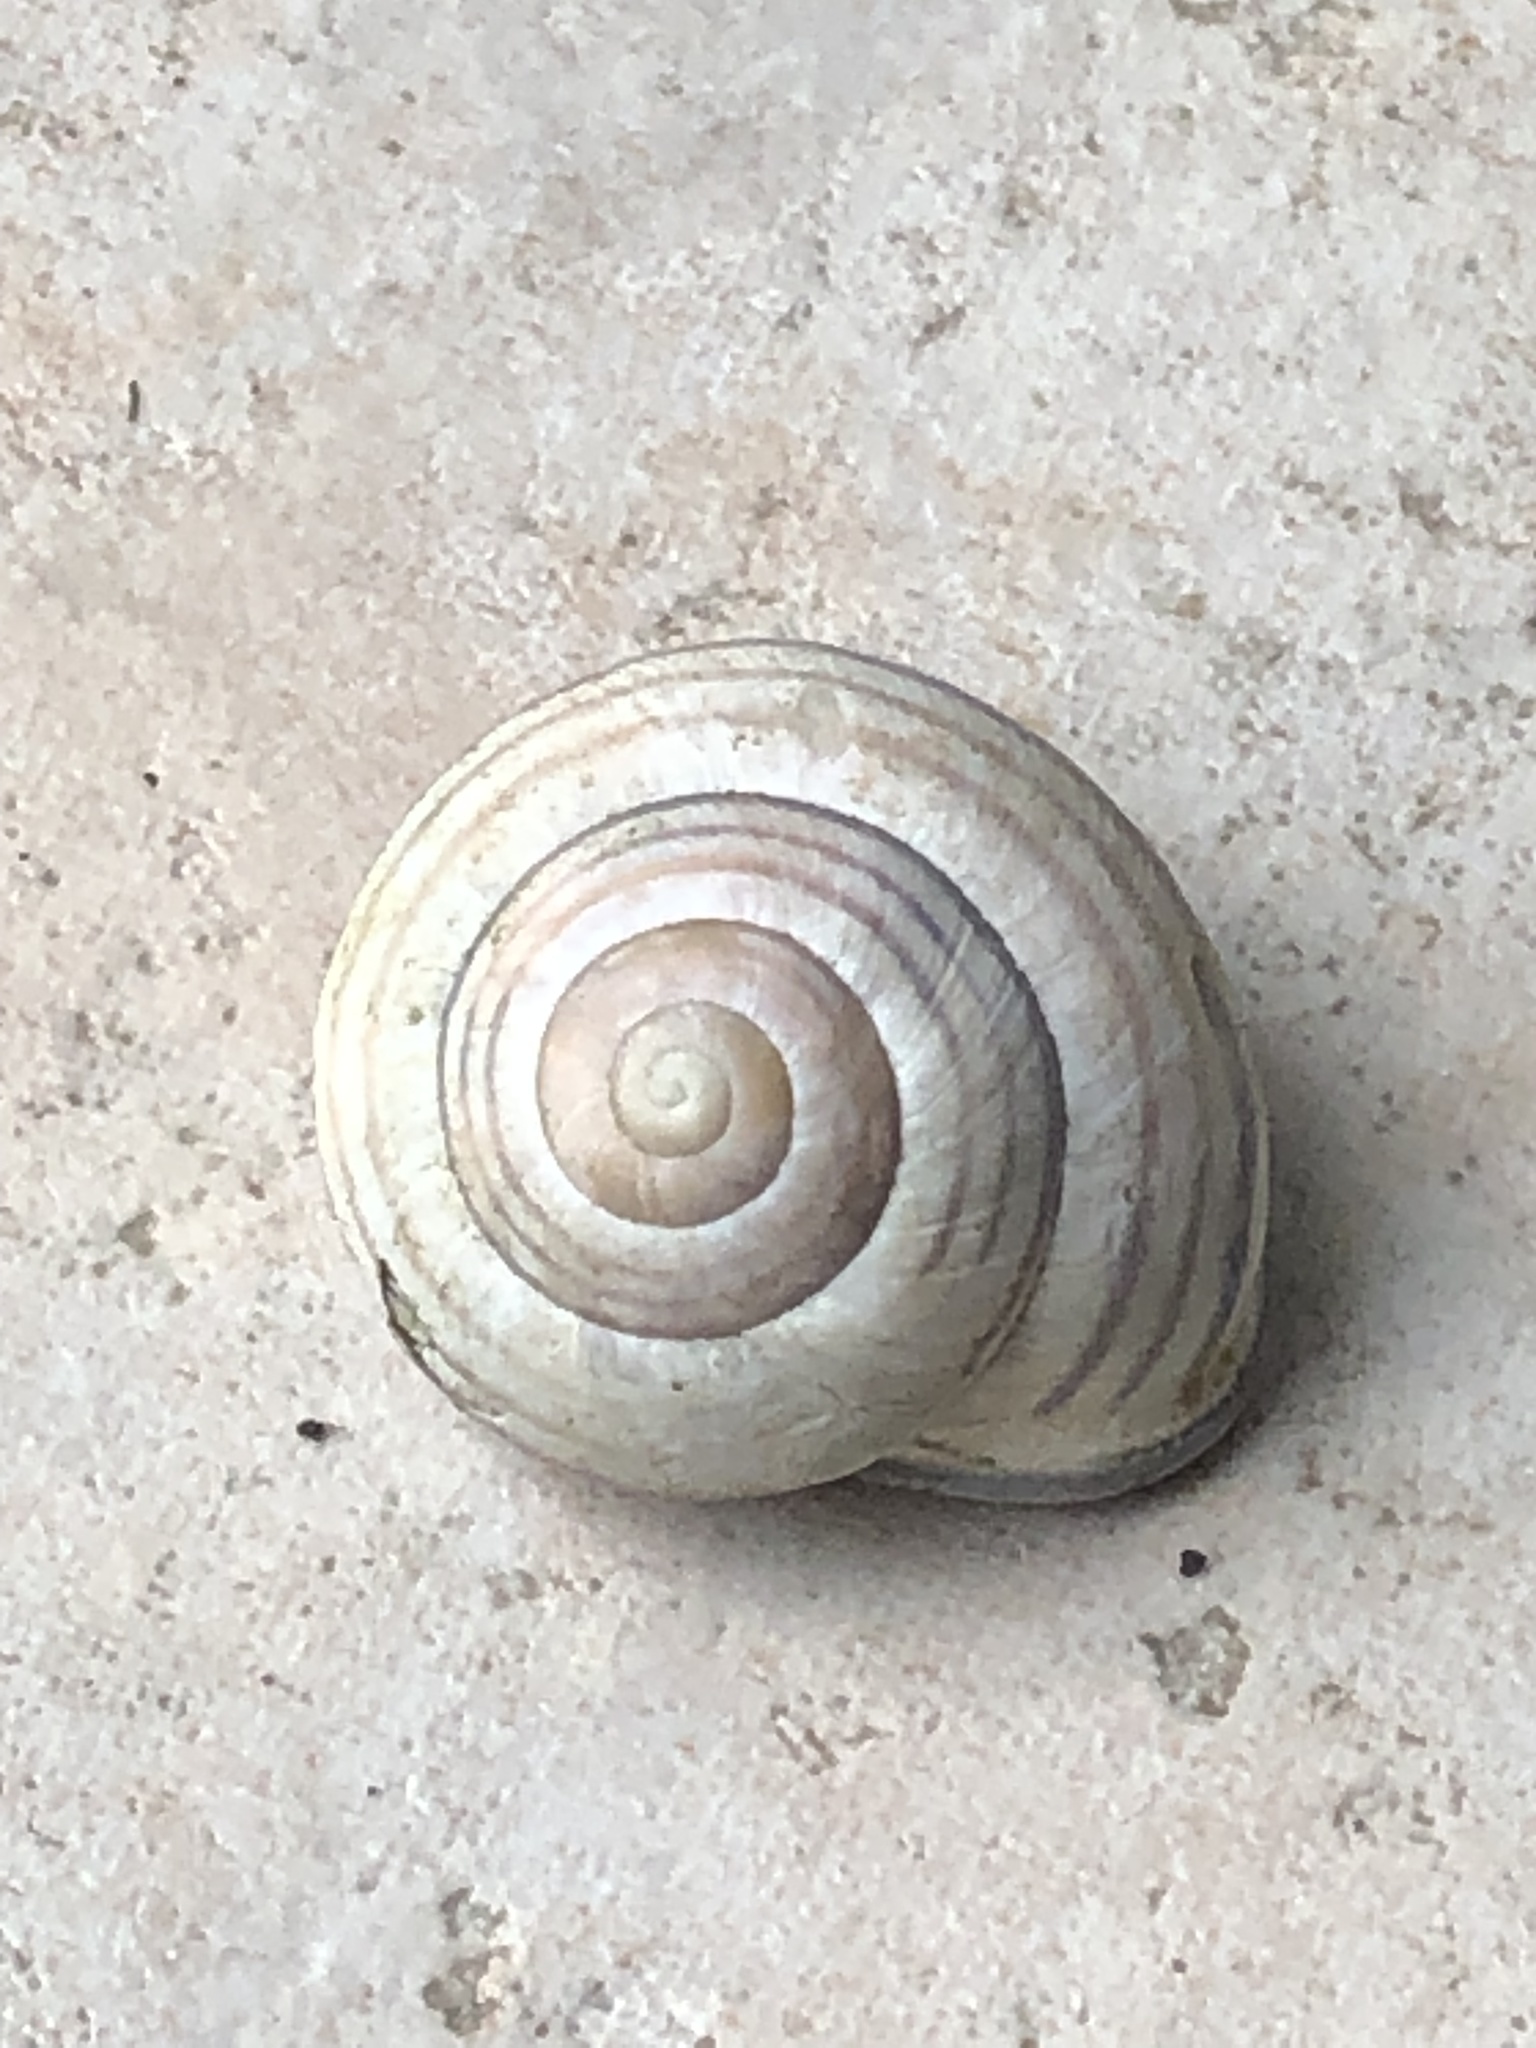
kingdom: Animalia
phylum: Mollusca
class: Gastropoda
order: Stylommatophora
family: Helicidae
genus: Cepaea
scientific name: Cepaea nemoralis
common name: Grovesnail
